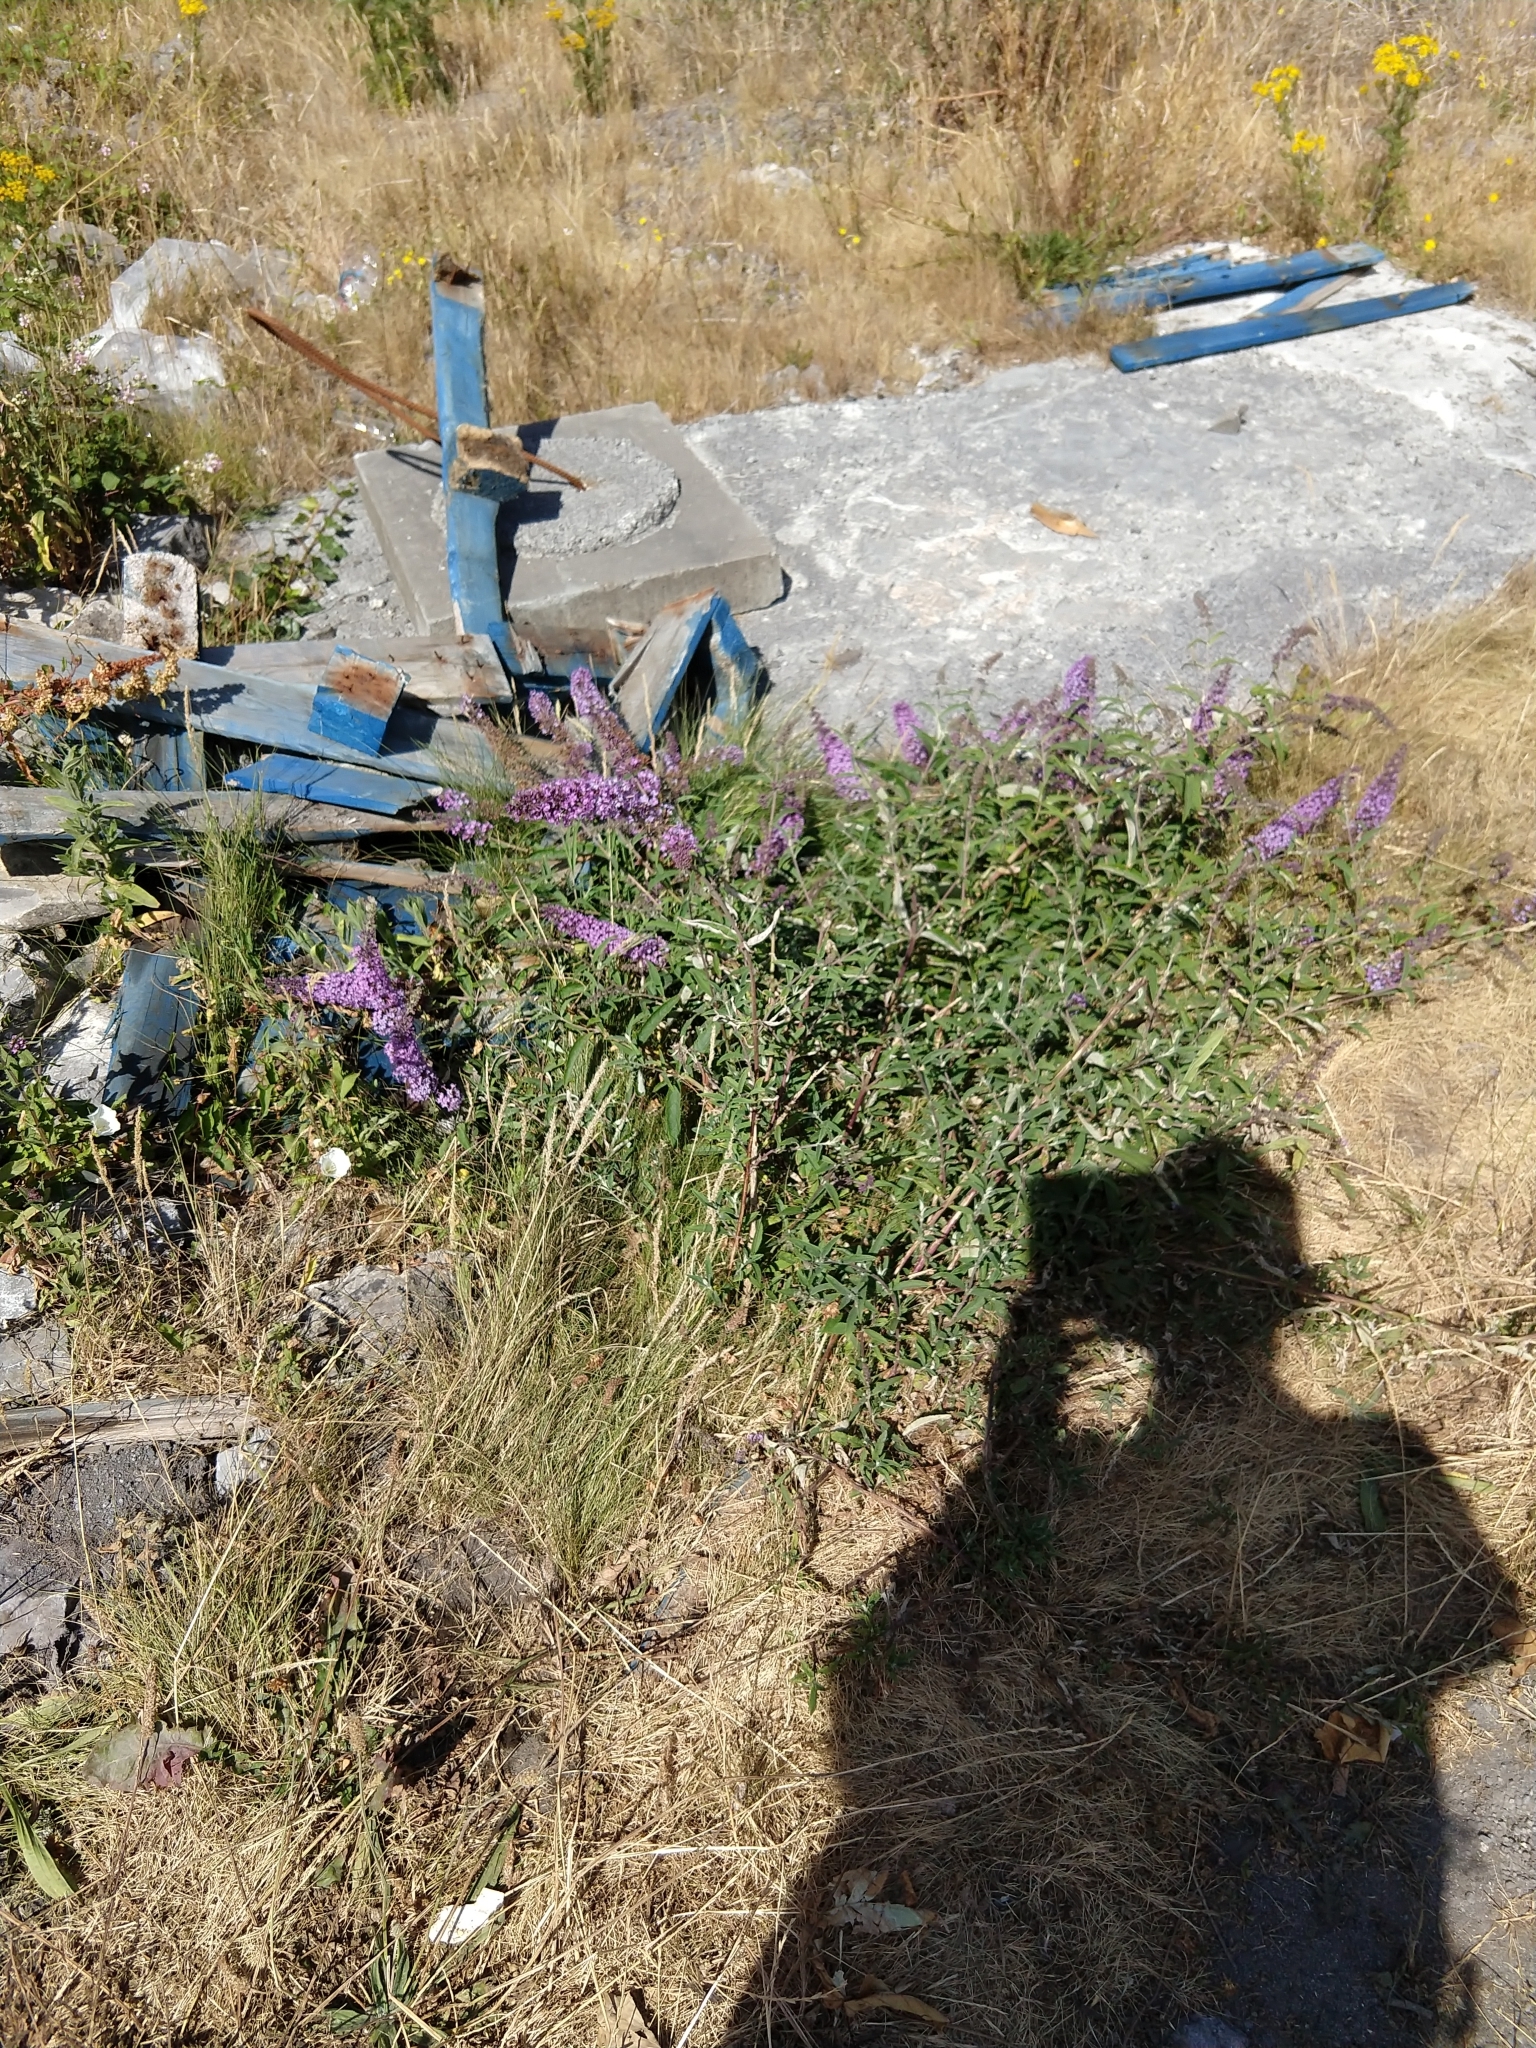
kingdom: Plantae
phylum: Tracheophyta
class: Magnoliopsida
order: Lamiales
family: Scrophulariaceae
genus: Buddleja
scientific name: Buddleja davidii
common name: Butterfly-bush
